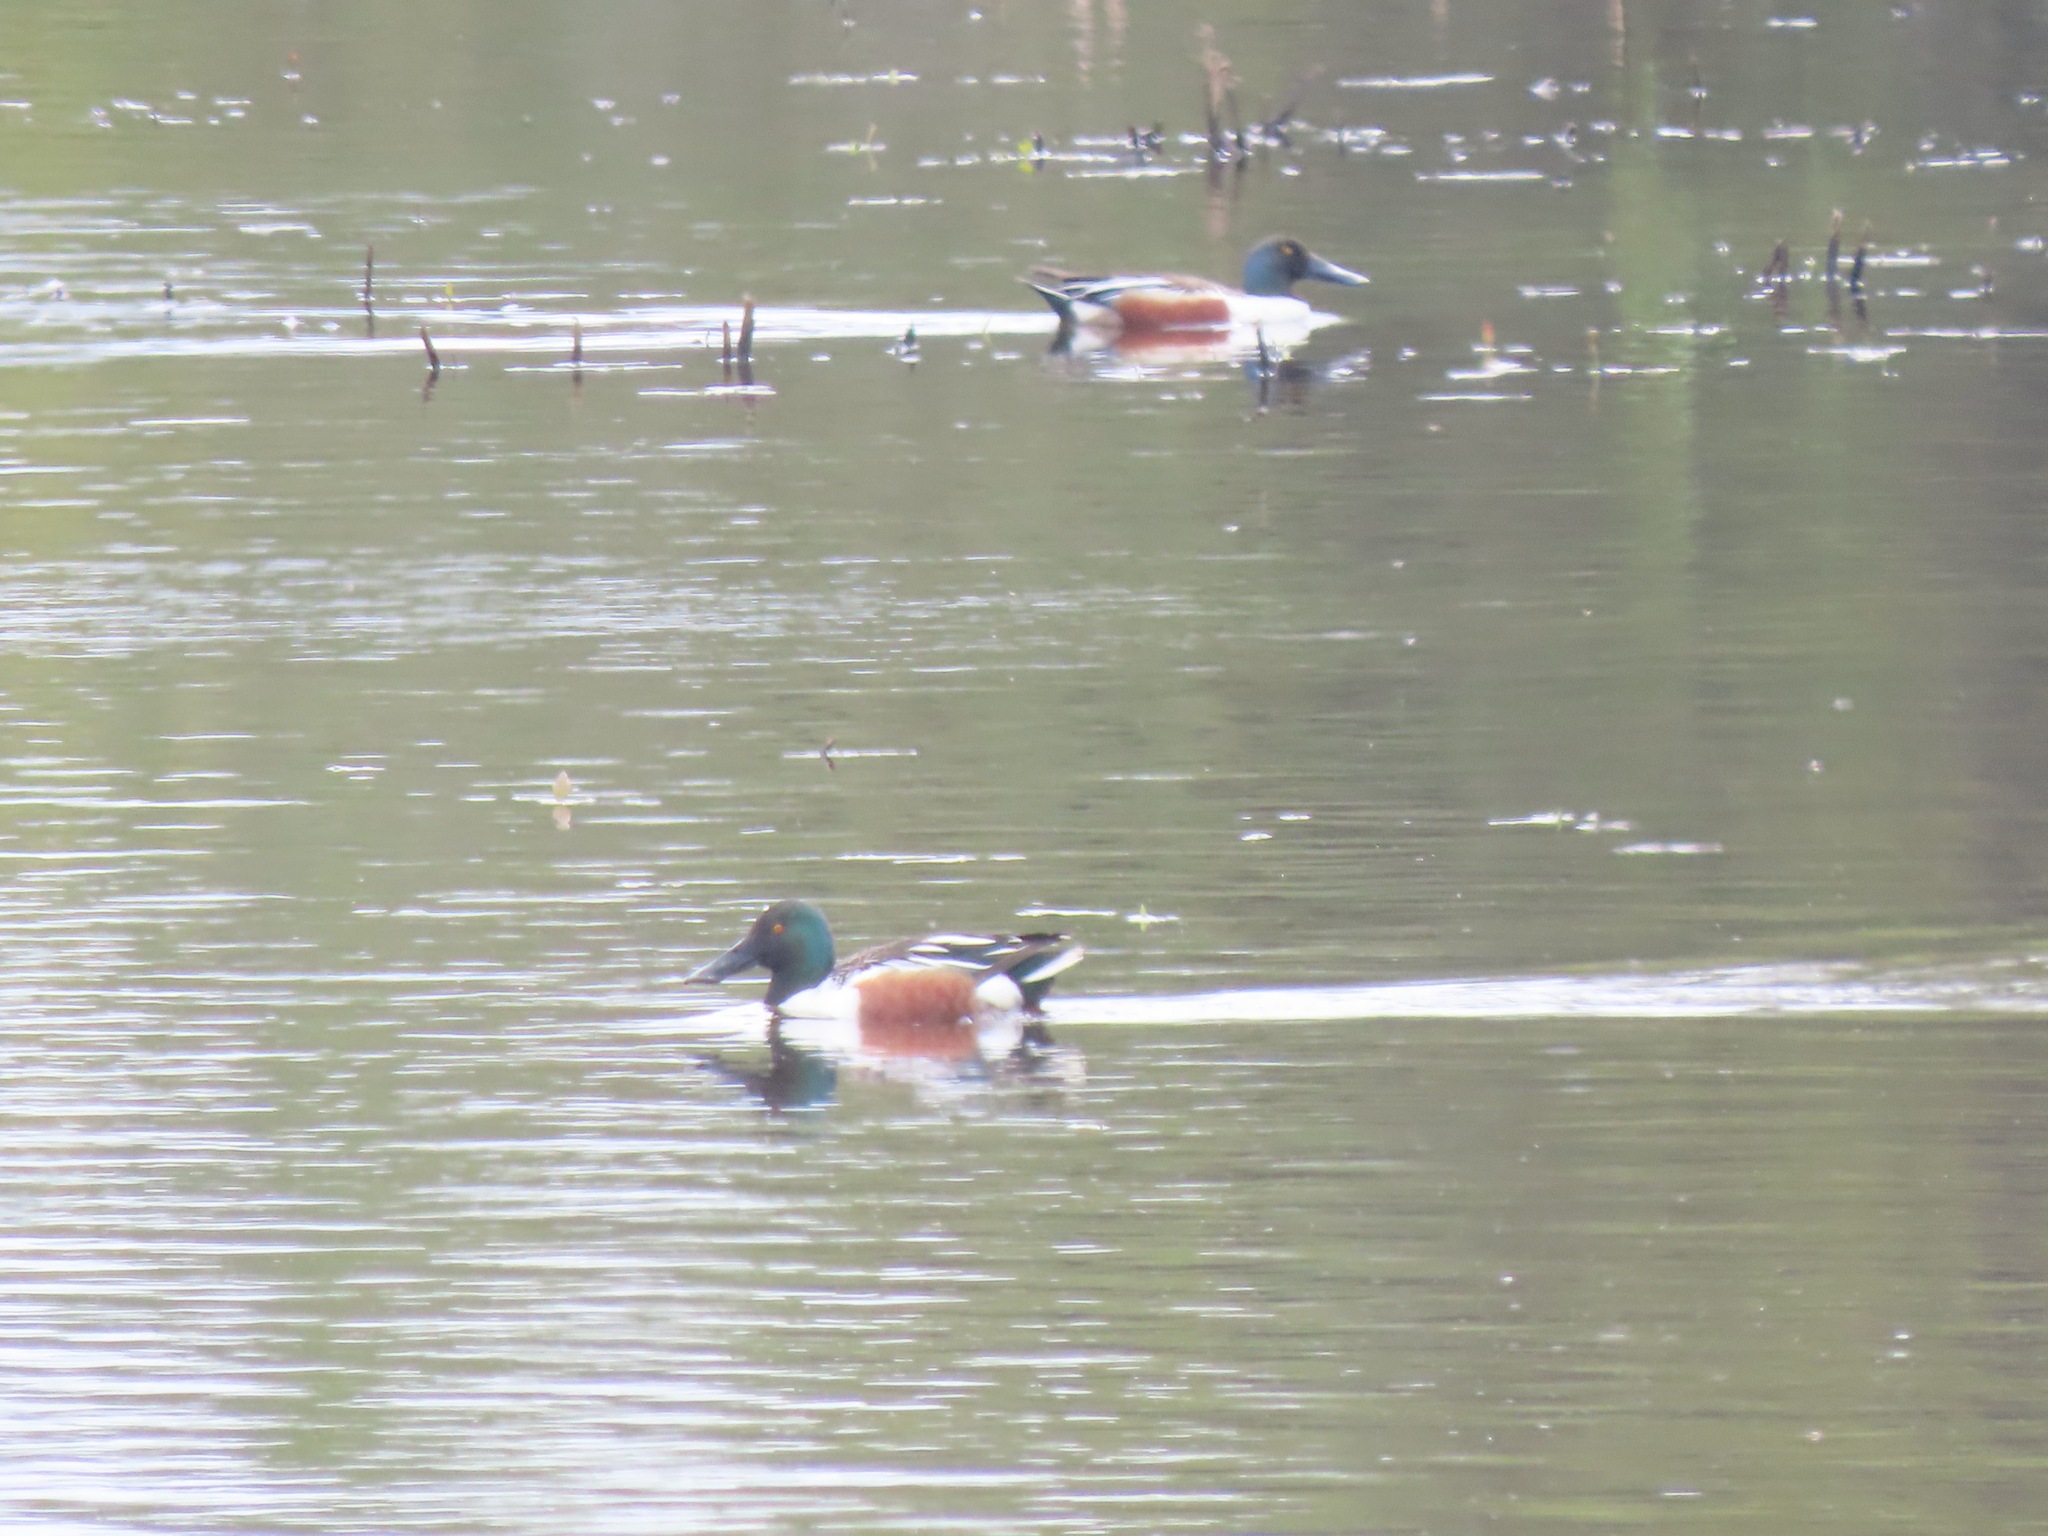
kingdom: Animalia
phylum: Chordata
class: Aves
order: Anseriformes
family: Anatidae
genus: Spatula
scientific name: Spatula clypeata
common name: Northern shoveler
